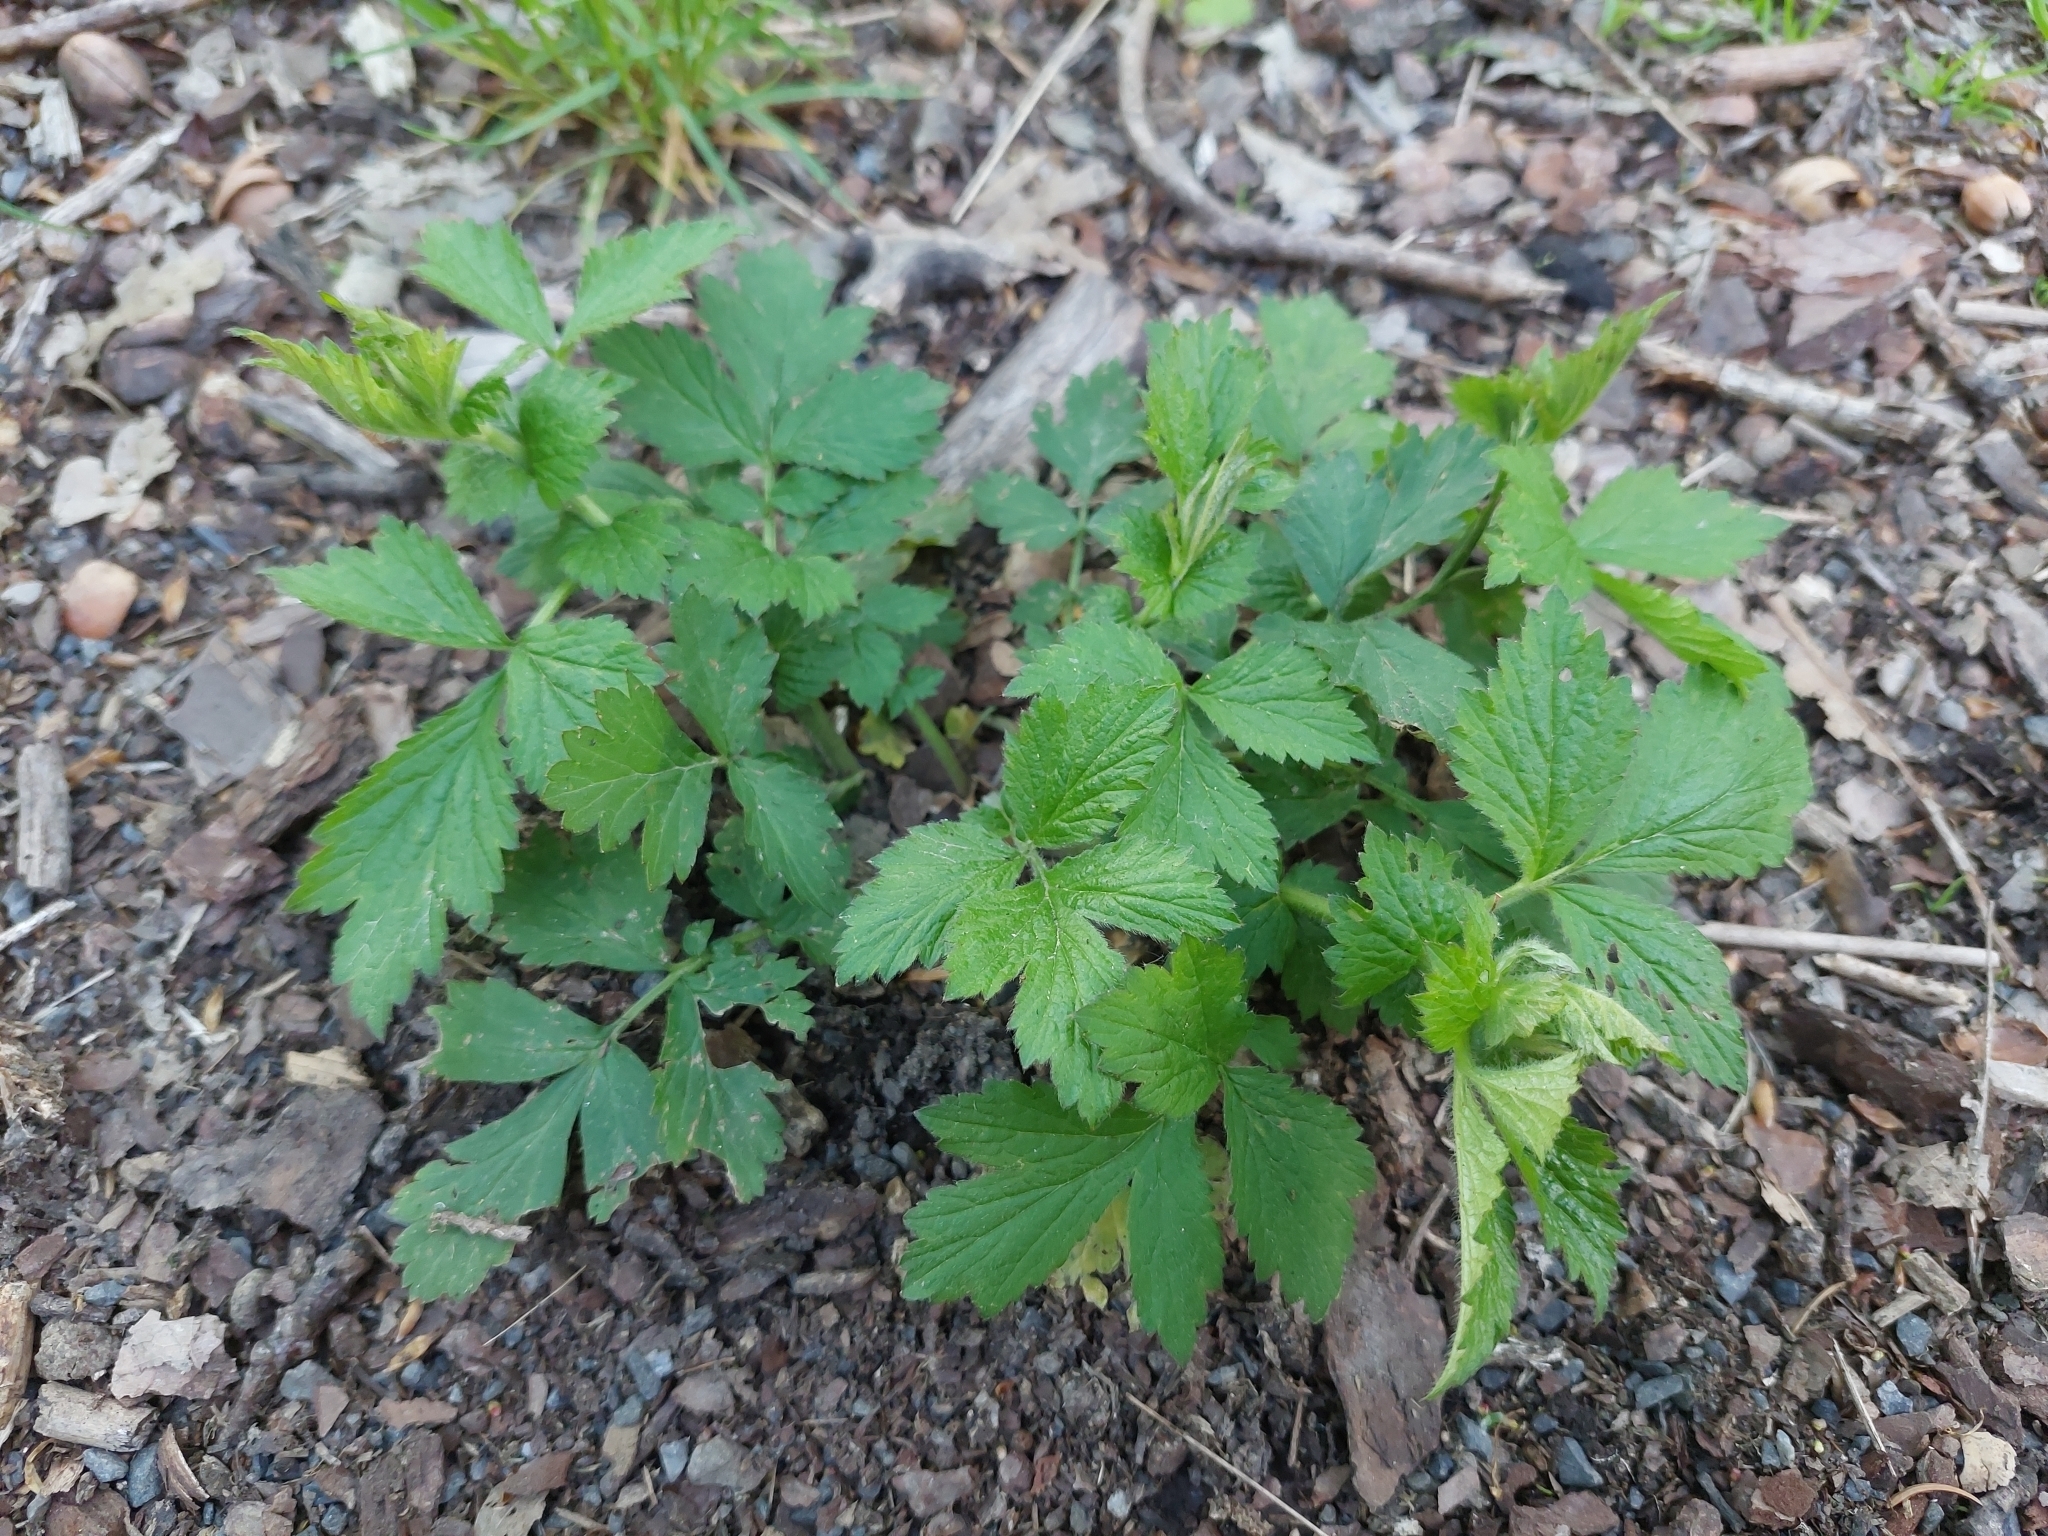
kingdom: Plantae
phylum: Tracheophyta
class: Magnoliopsida
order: Rosales
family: Rosaceae
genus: Geum
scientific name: Geum urbanum
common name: Wood avens
